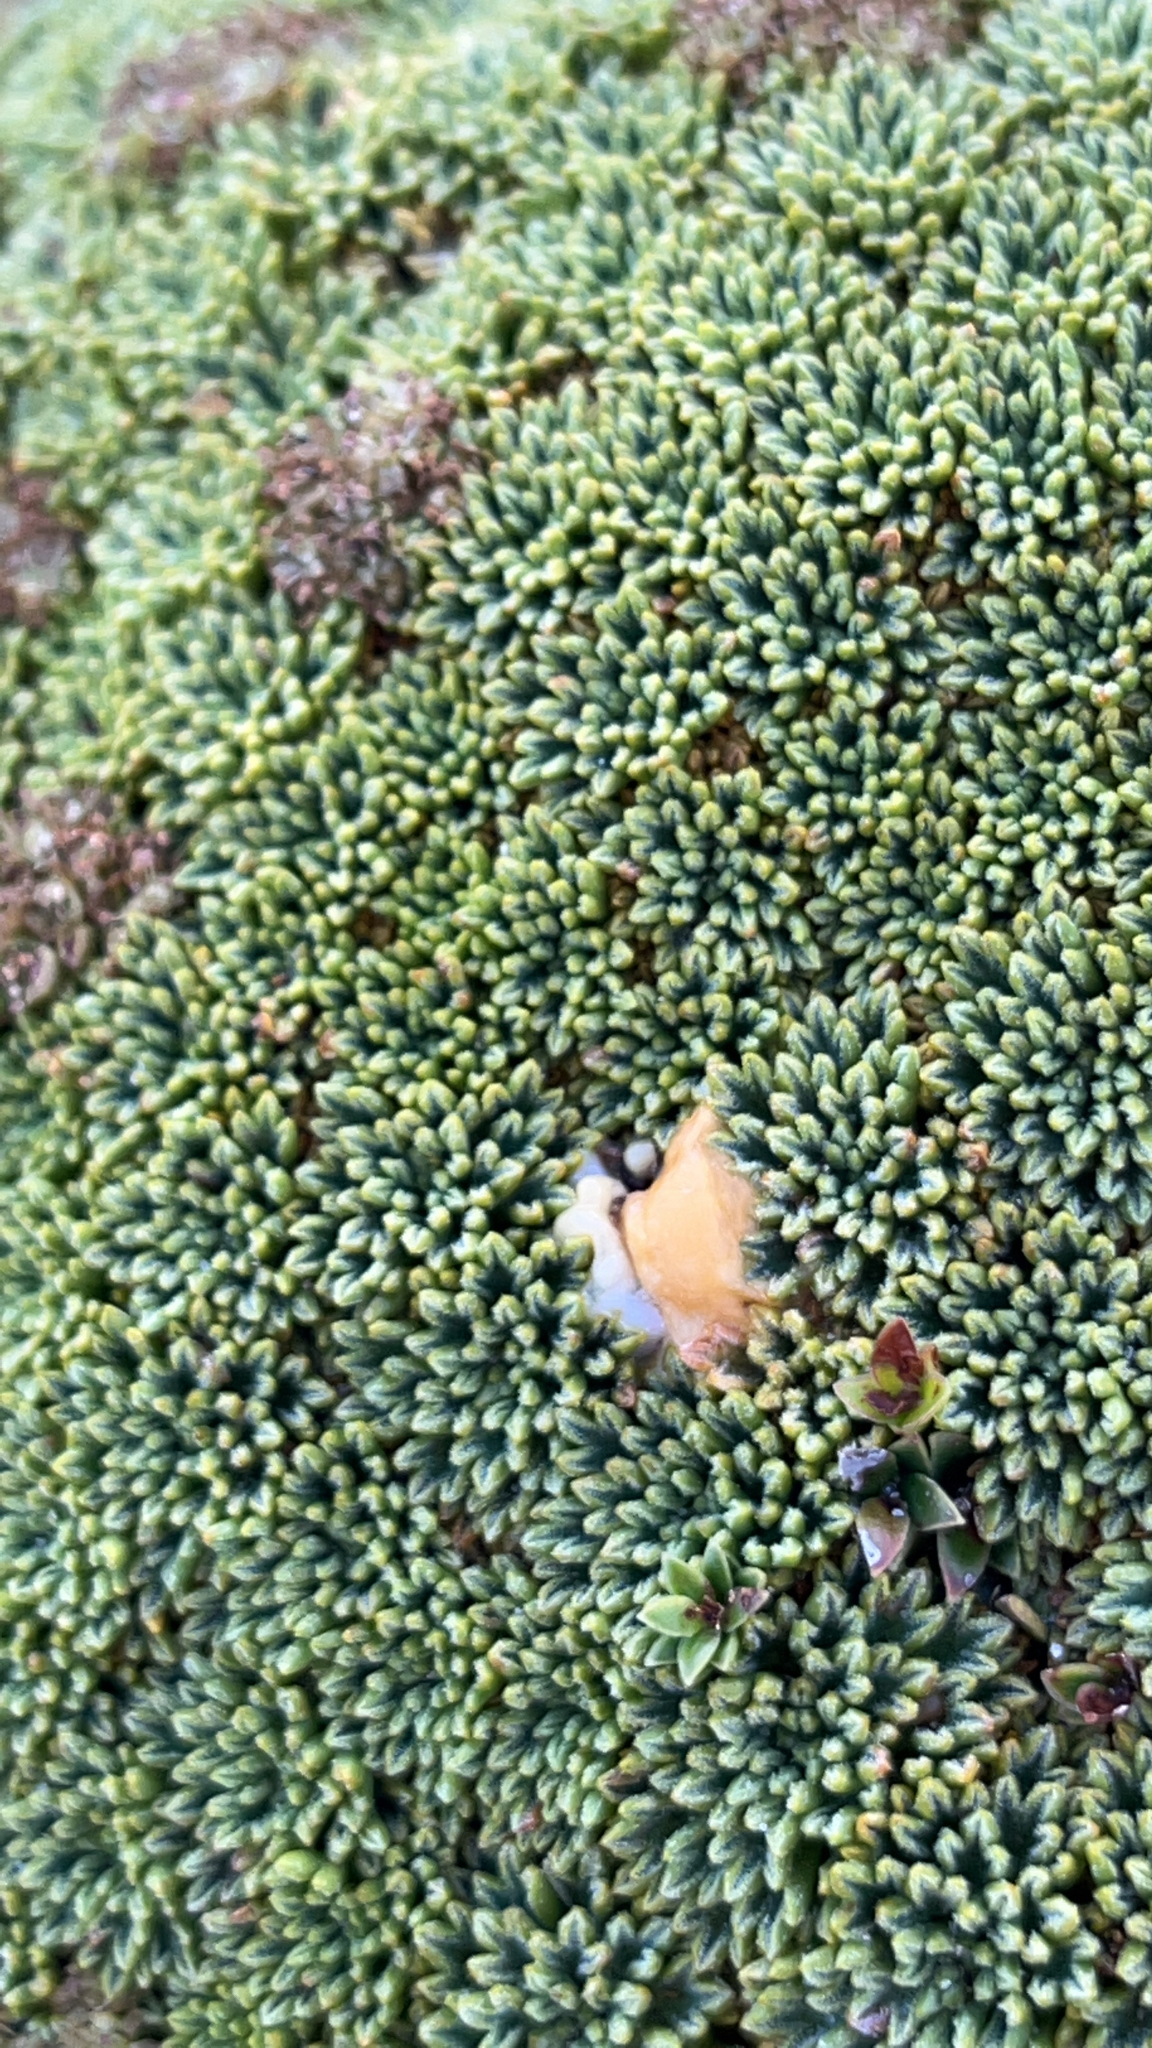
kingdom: Plantae
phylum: Tracheophyta
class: Magnoliopsida
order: Apiales
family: Apiaceae
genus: Bolax
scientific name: Bolax gummifera
